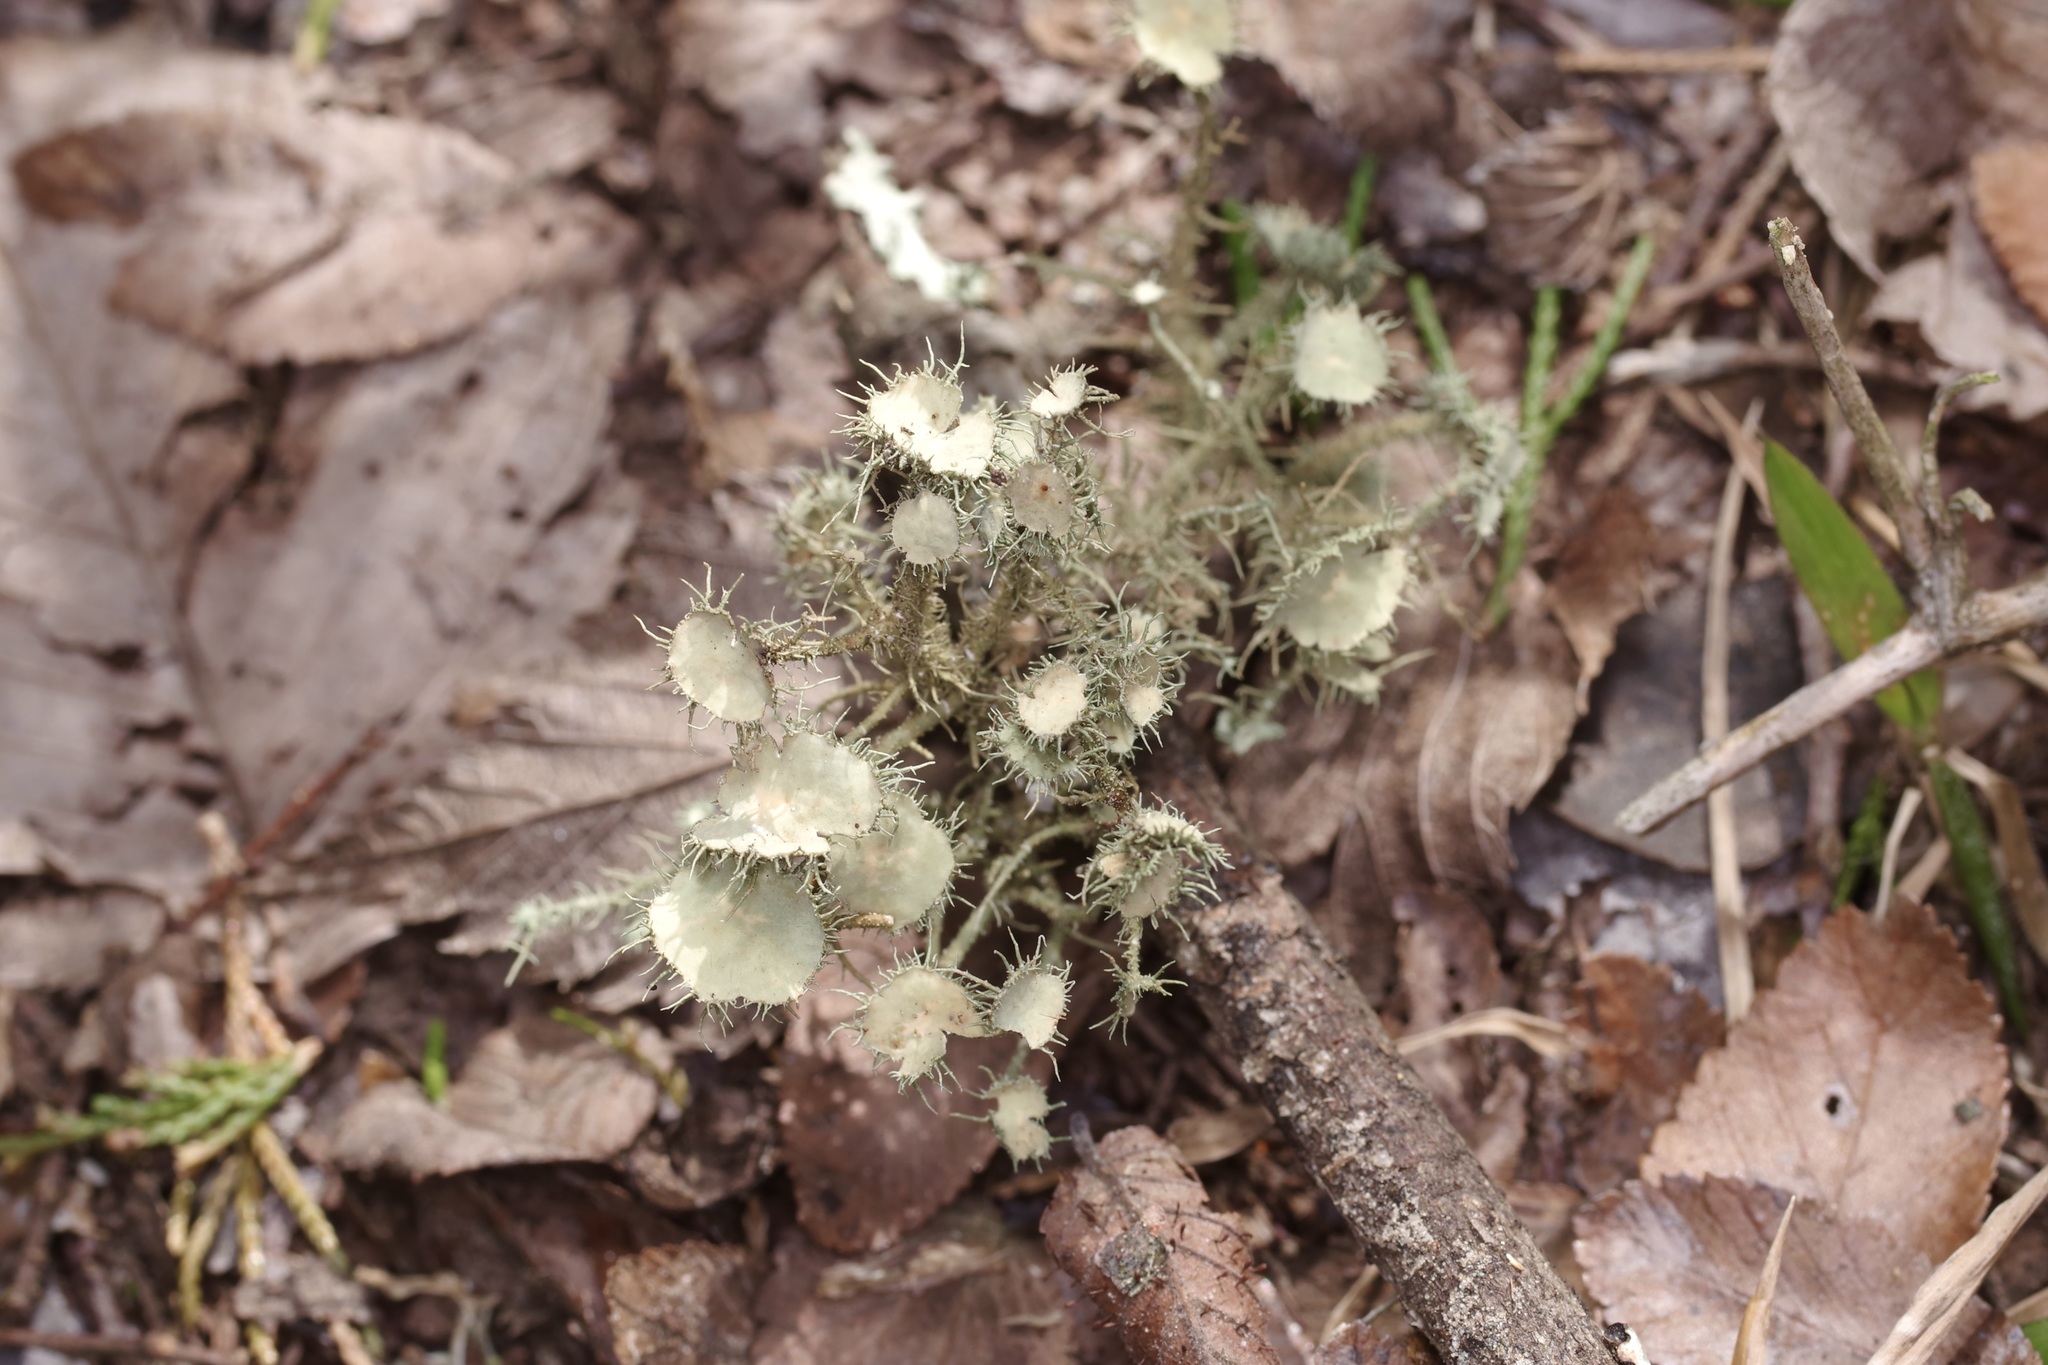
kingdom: Fungi
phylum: Ascomycota
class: Lecanoromycetes
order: Lecanorales
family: Parmeliaceae
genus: Usnea
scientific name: Usnea strigosa
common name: Bushy beard lichen
